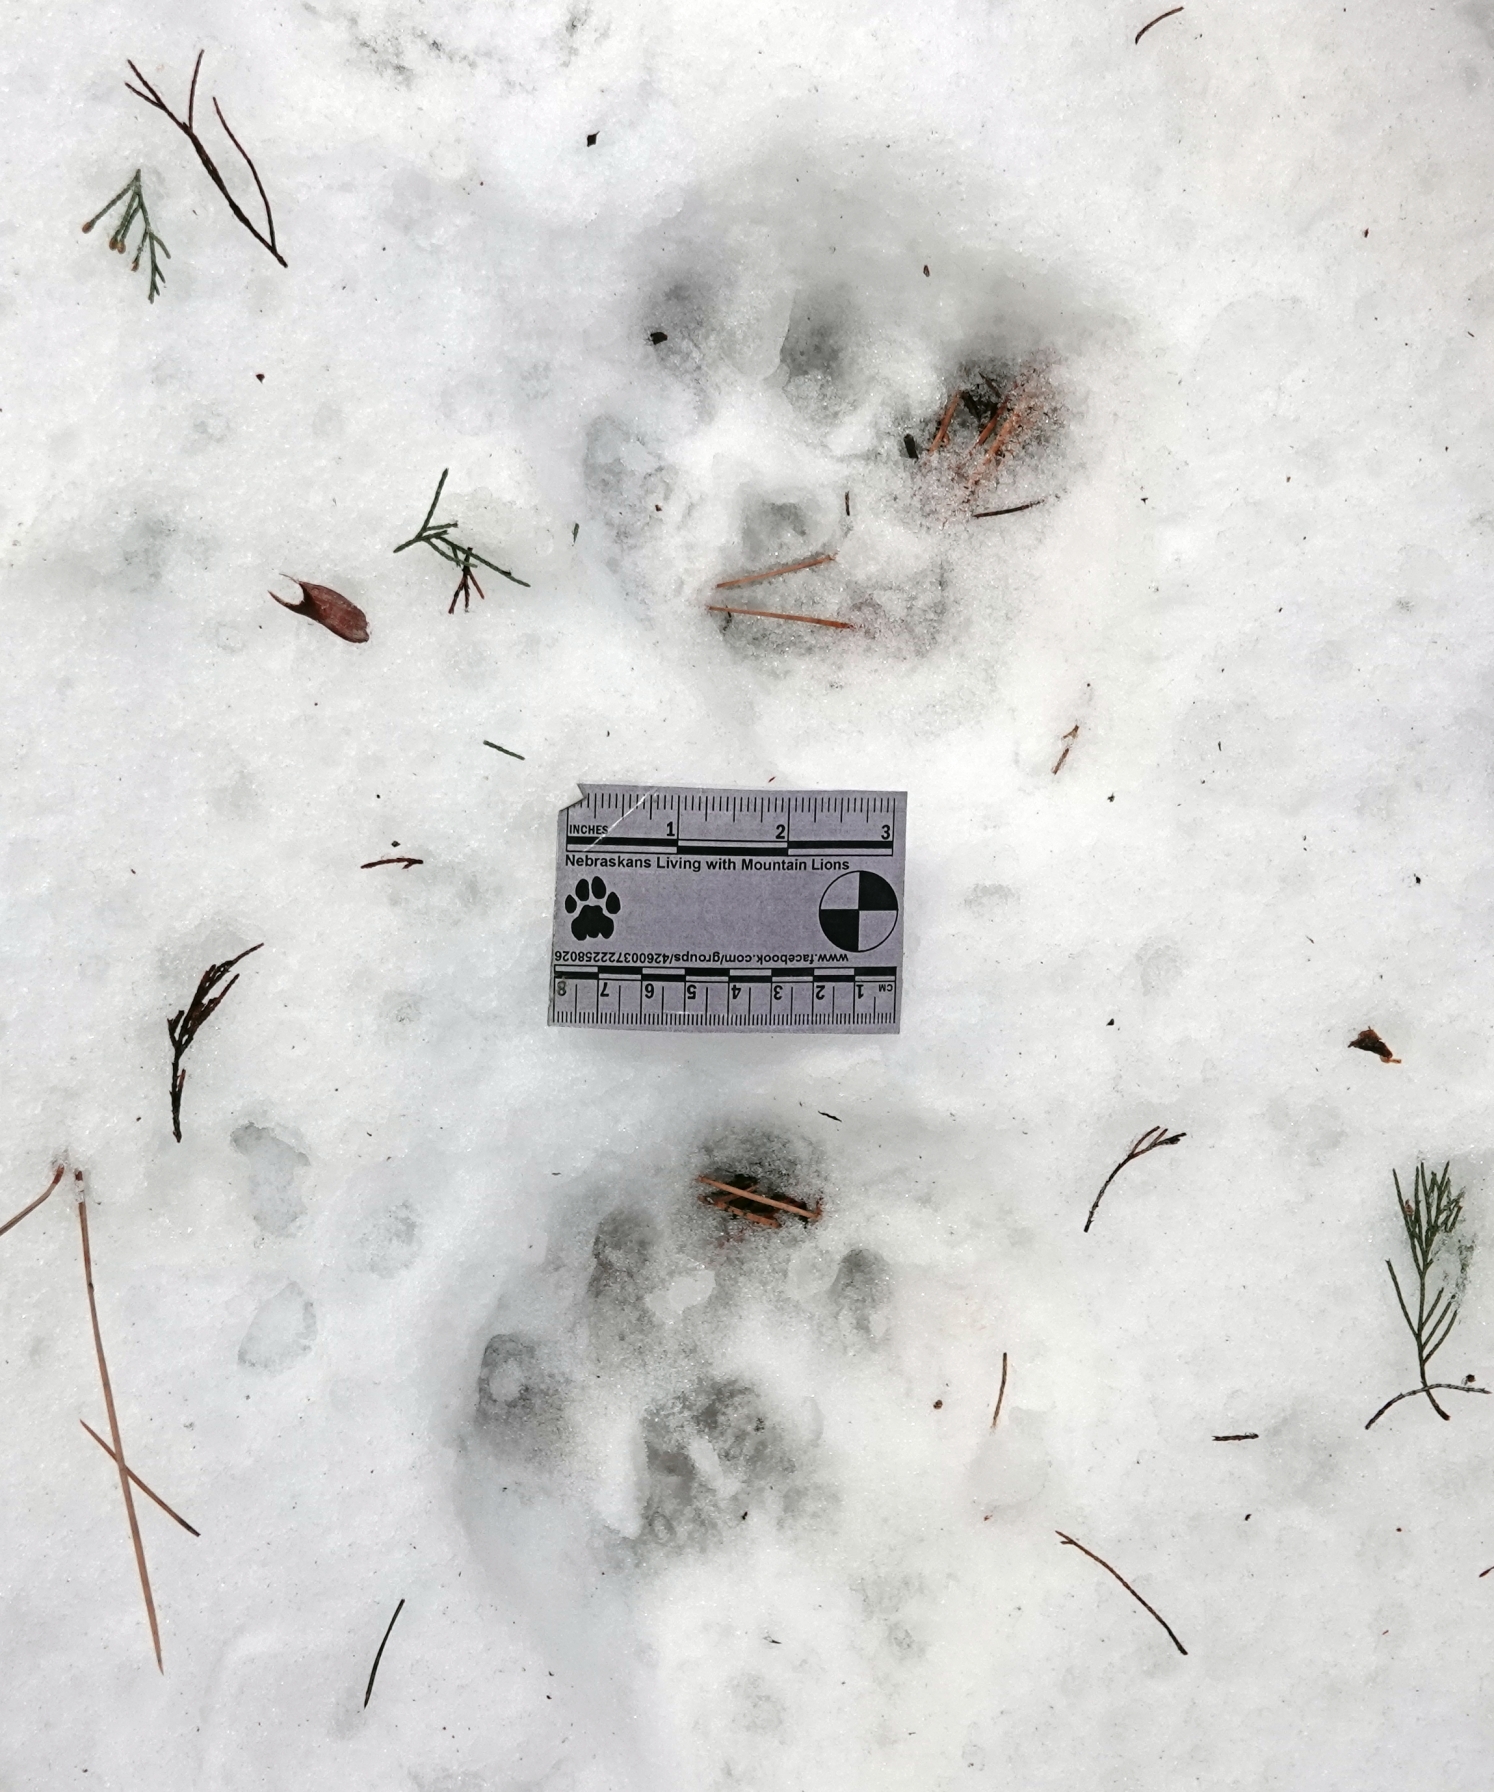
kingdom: Animalia
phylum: Chordata
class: Mammalia
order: Carnivora
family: Felidae
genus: Puma
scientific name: Puma concolor
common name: Puma
